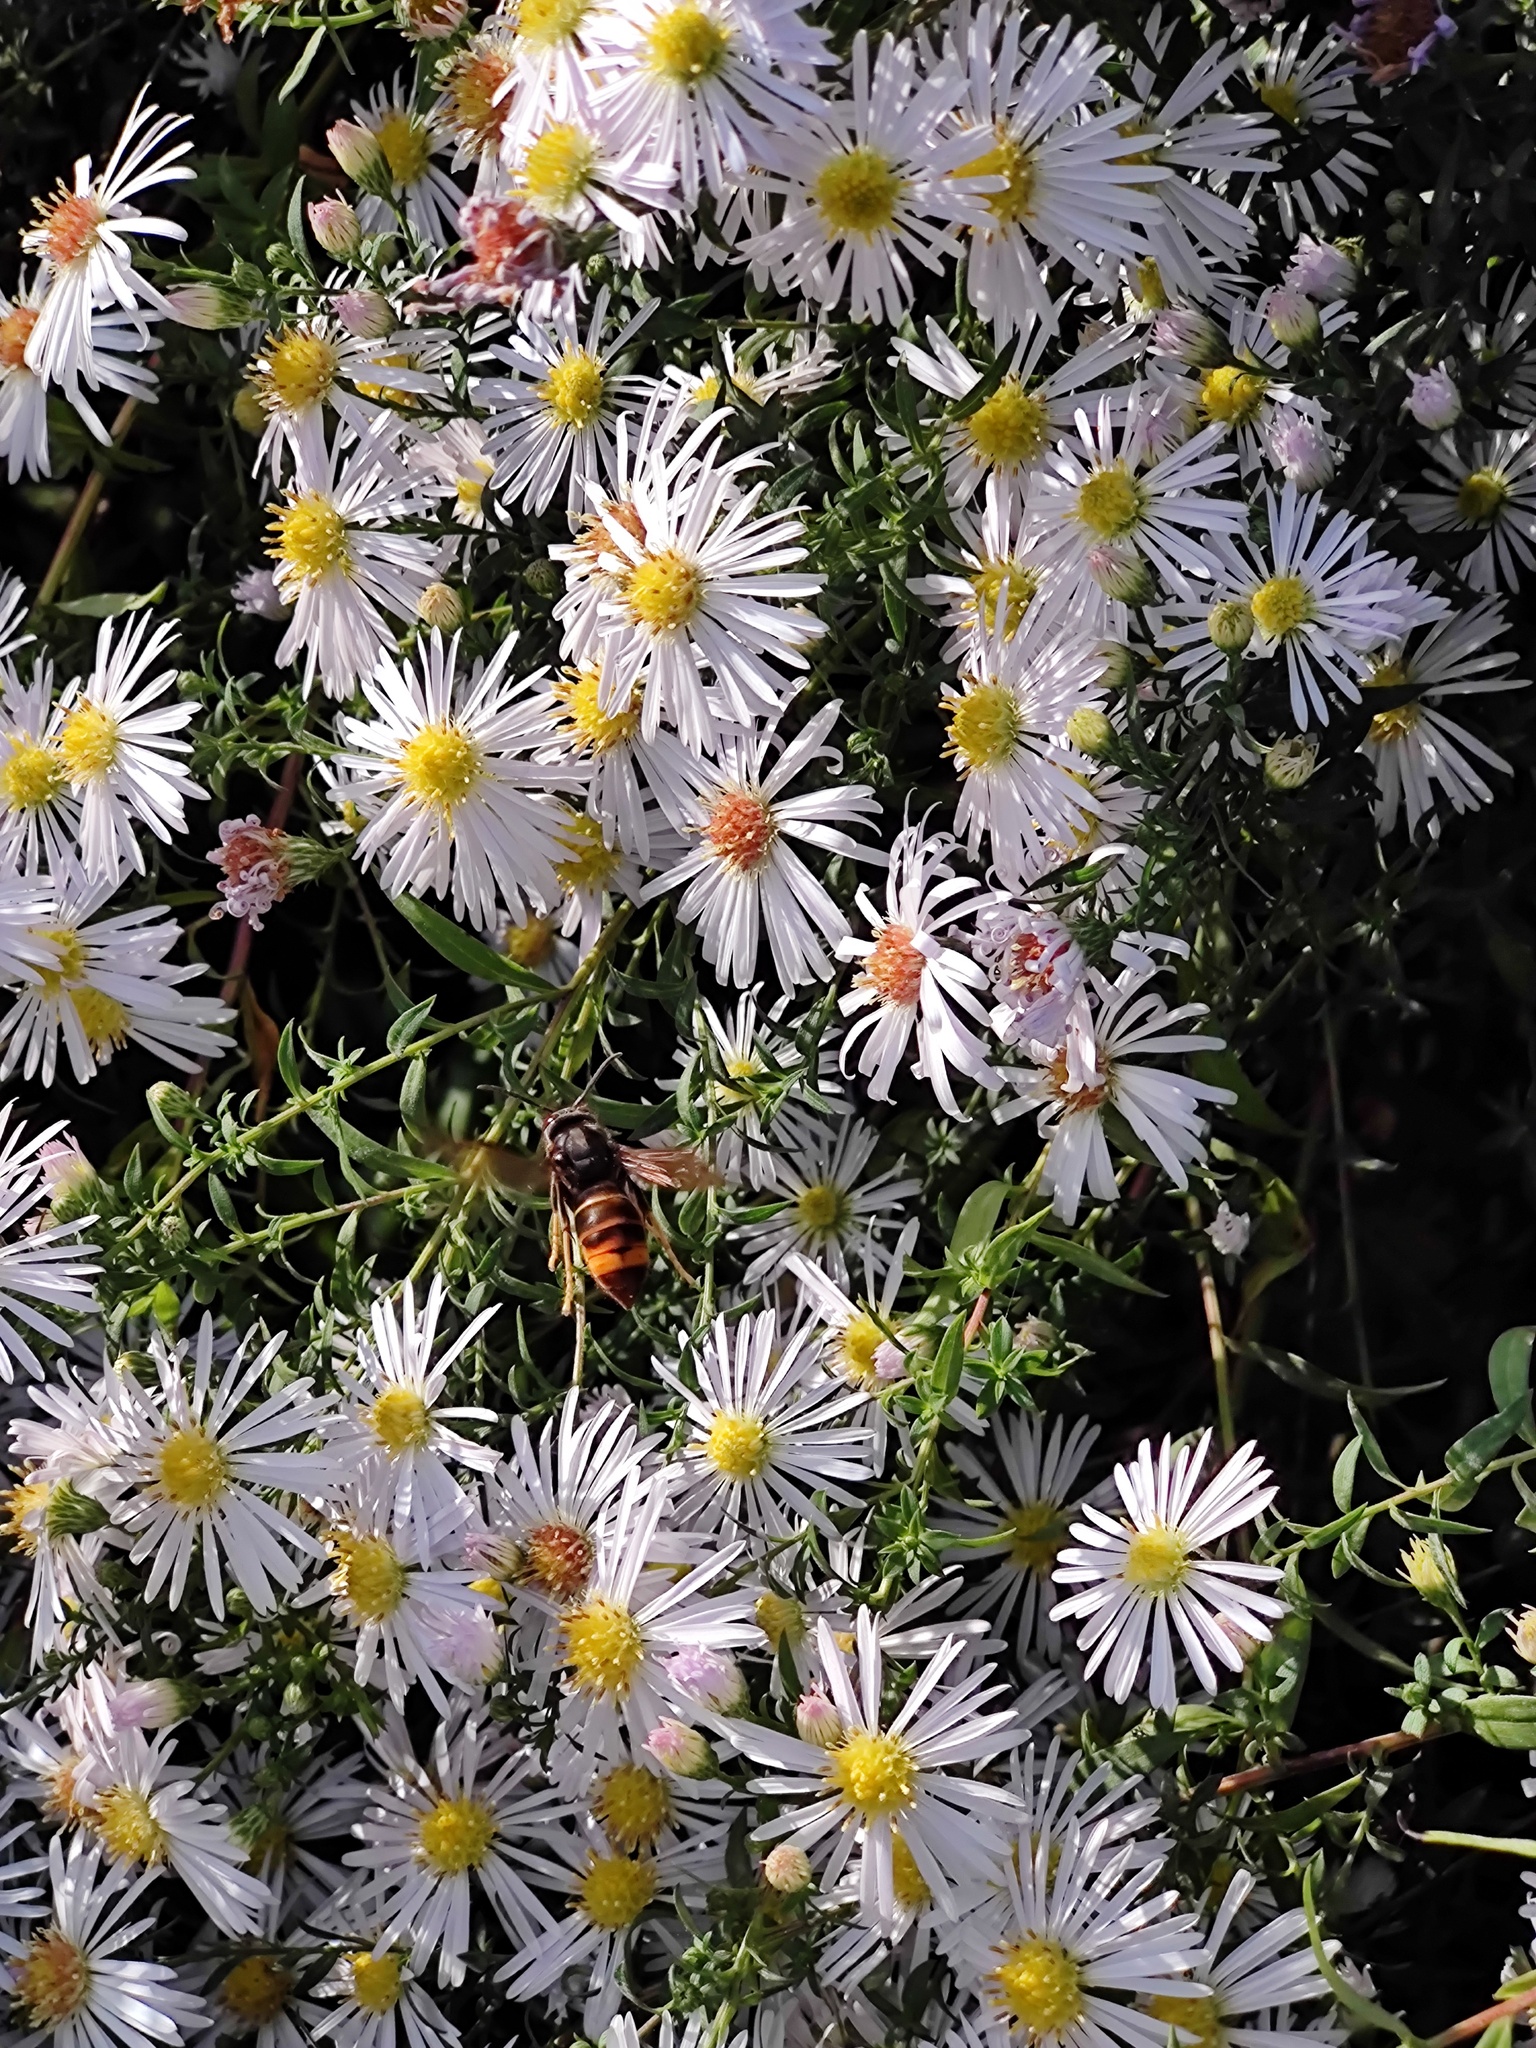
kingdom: Animalia
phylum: Arthropoda
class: Insecta
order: Hymenoptera
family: Vespidae
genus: Vespa
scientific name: Vespa velutina
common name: Asian hornet
